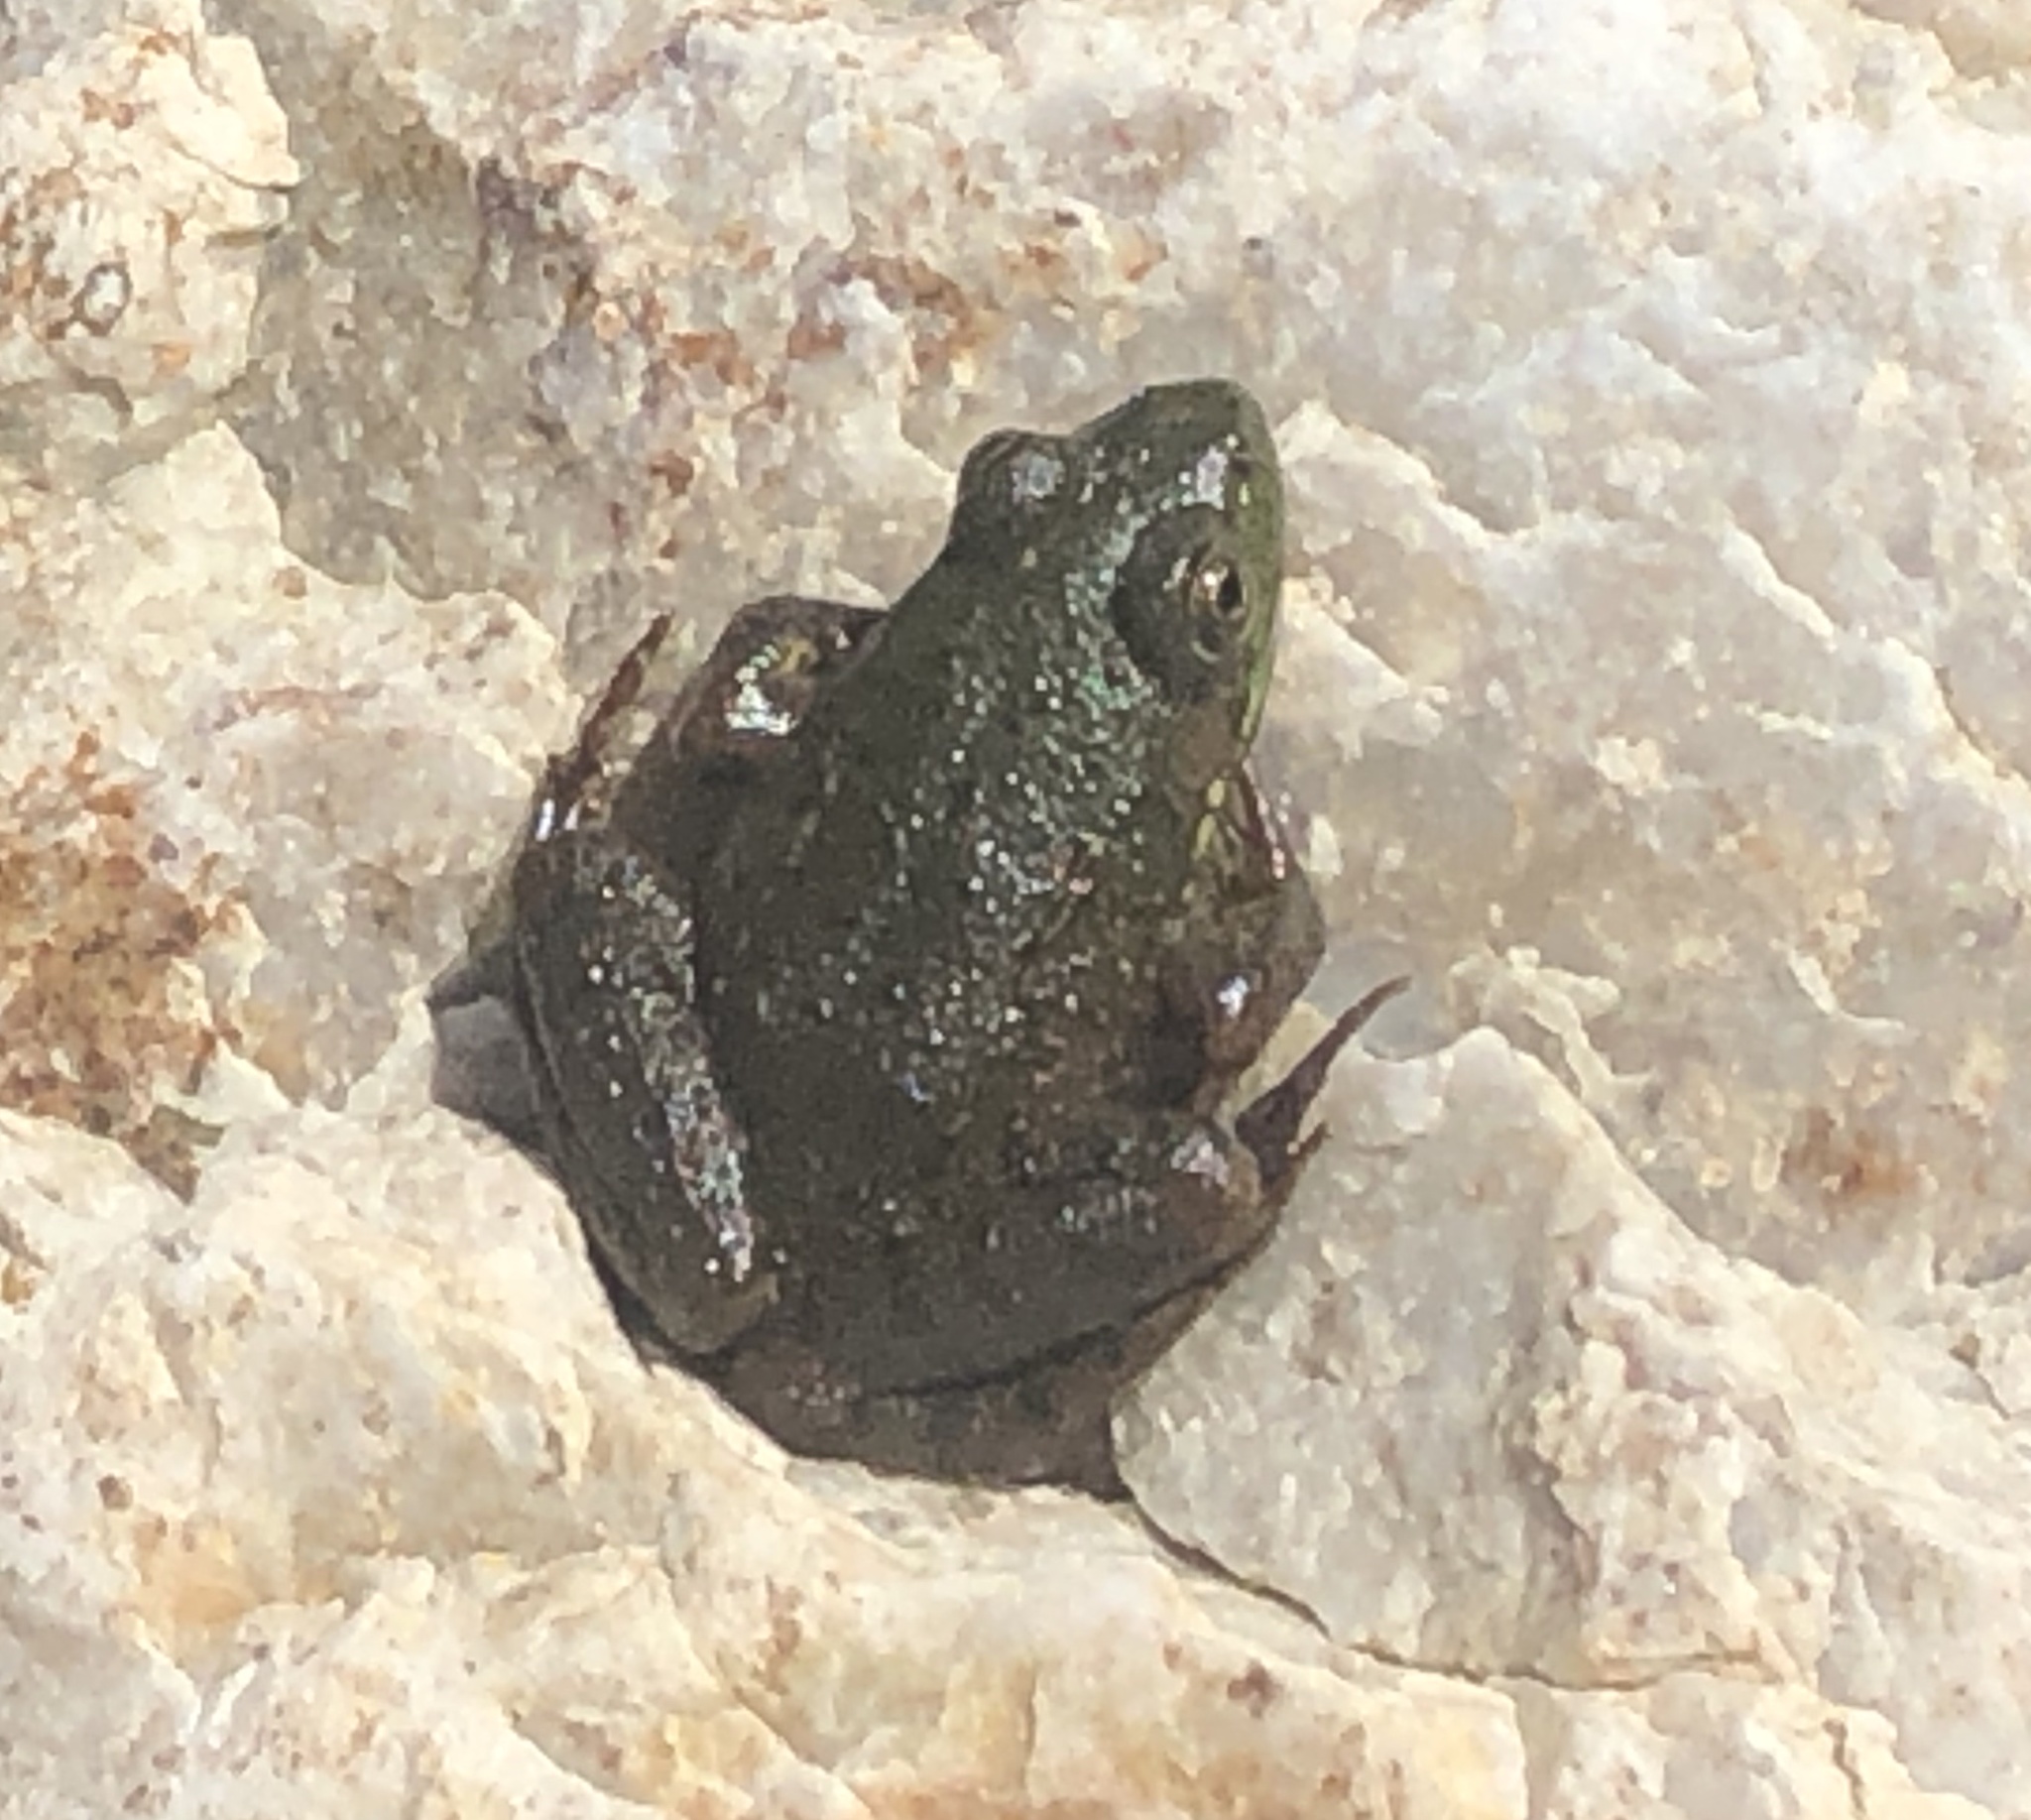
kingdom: Animalia
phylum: Chordata
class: Amphibia
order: Anura
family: Ranidae
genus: Lithobates
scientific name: Lithobates clamitans
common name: Green frog
